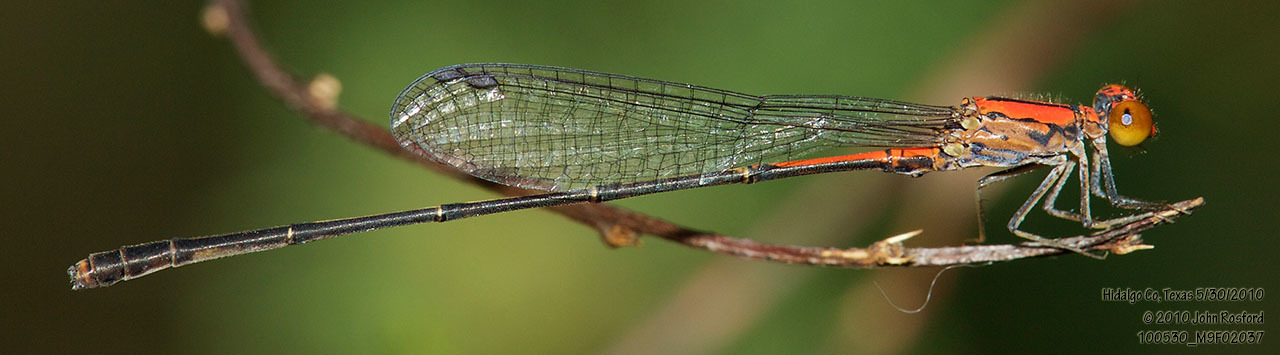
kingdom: Animalia
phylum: Arthropoda
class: Insecta
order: Odonata
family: Coenagrionidae
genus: Neoneura
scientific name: Neoneura amelia
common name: Amelia’s threadtail
